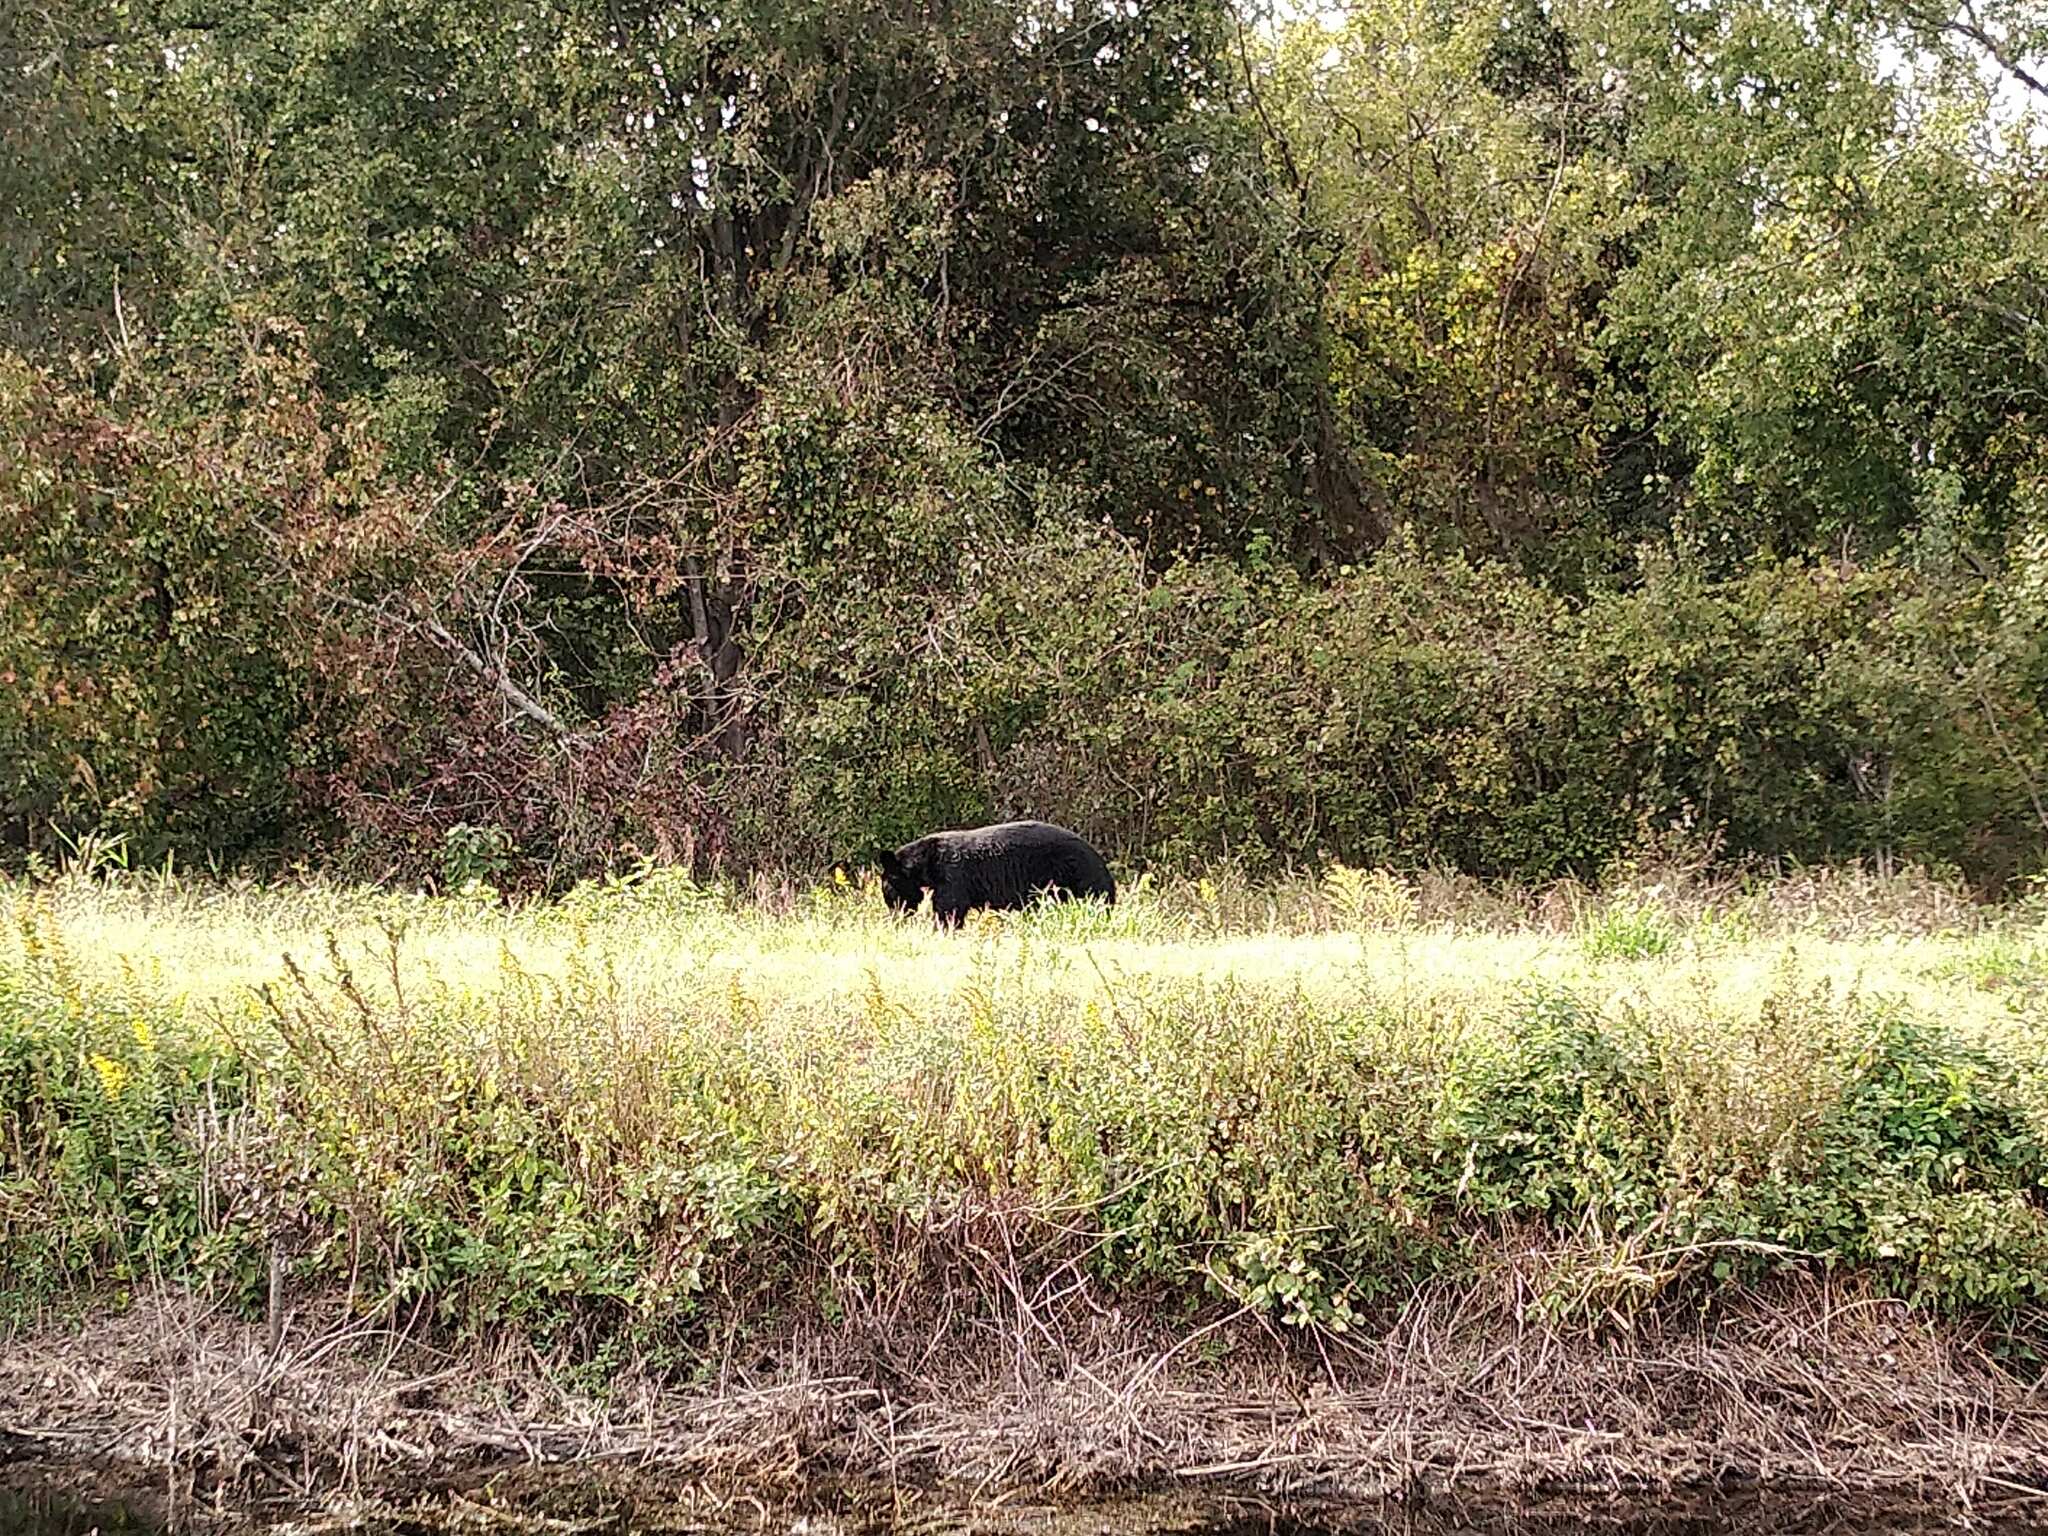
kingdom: Animalia
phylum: Chordata
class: Mammalia
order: Carnivora
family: Ursidae
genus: Ursus
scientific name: Ursus americanus
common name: American black bear
